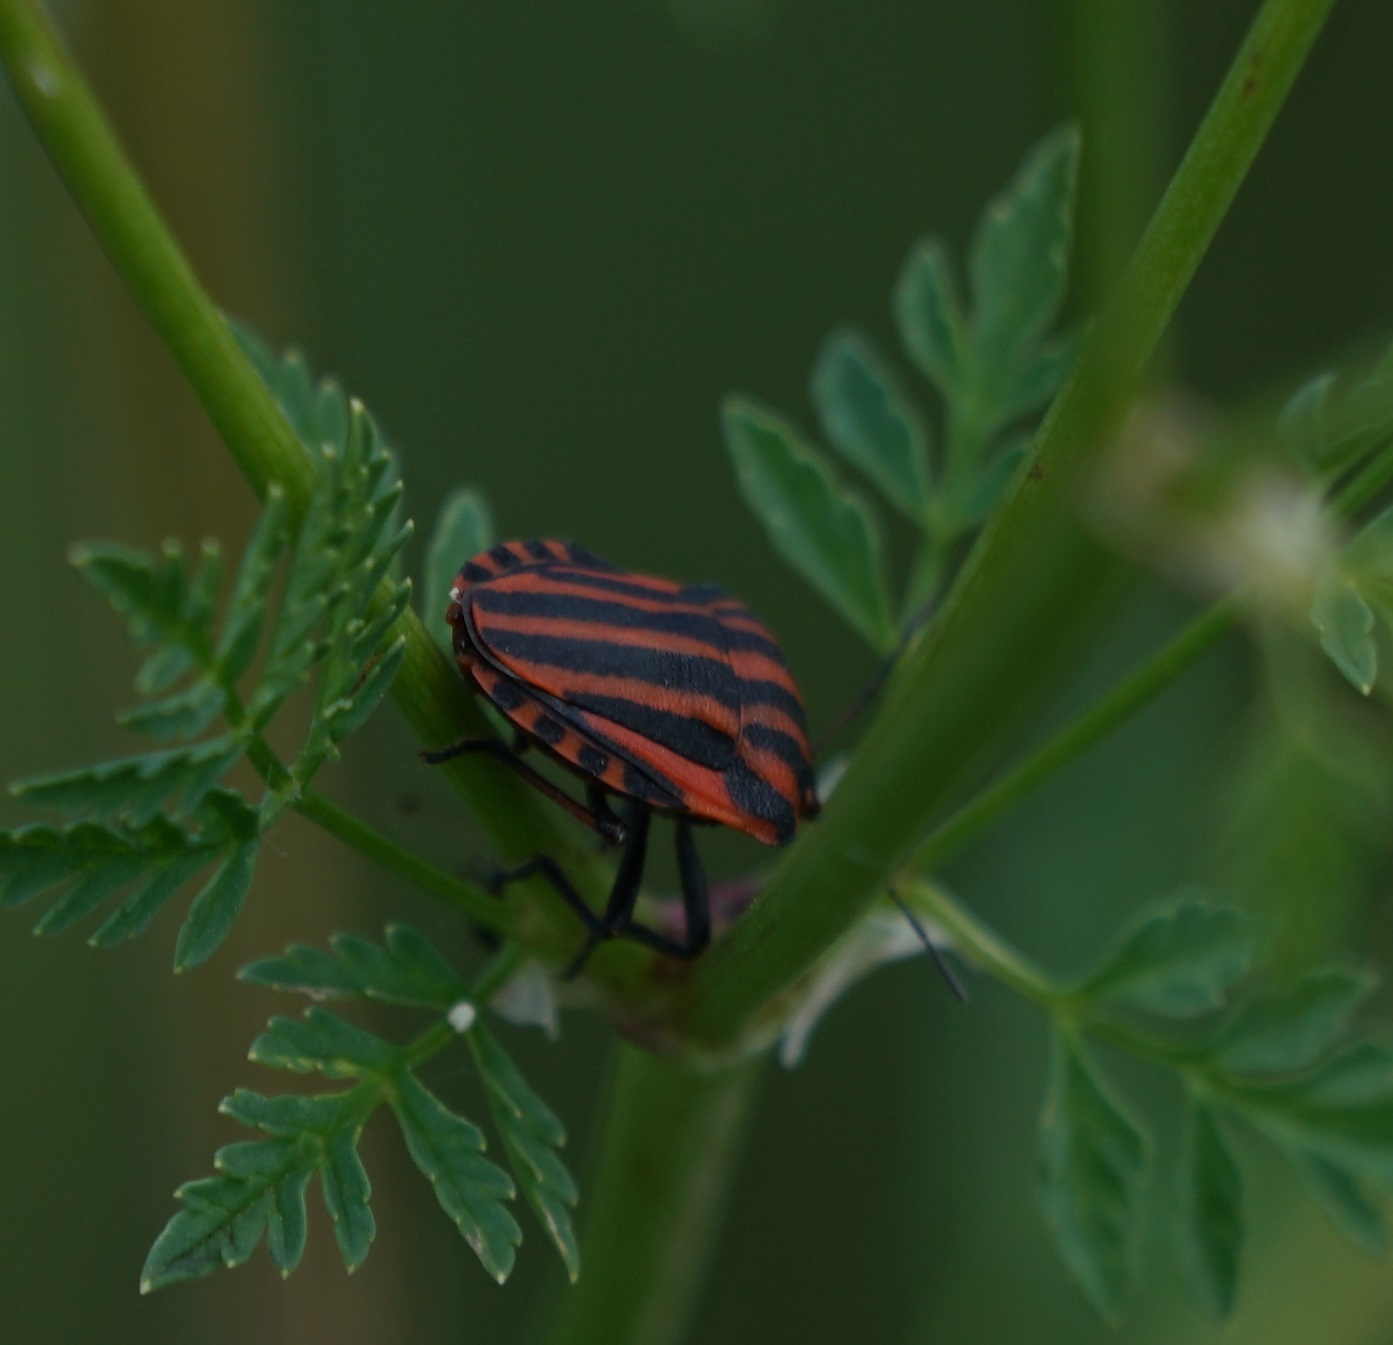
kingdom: Animalia
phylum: Arthropoda
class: Insecta
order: Hemiptera
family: Pentatomidae
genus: Graphosoma
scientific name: Graphosoma italicum
